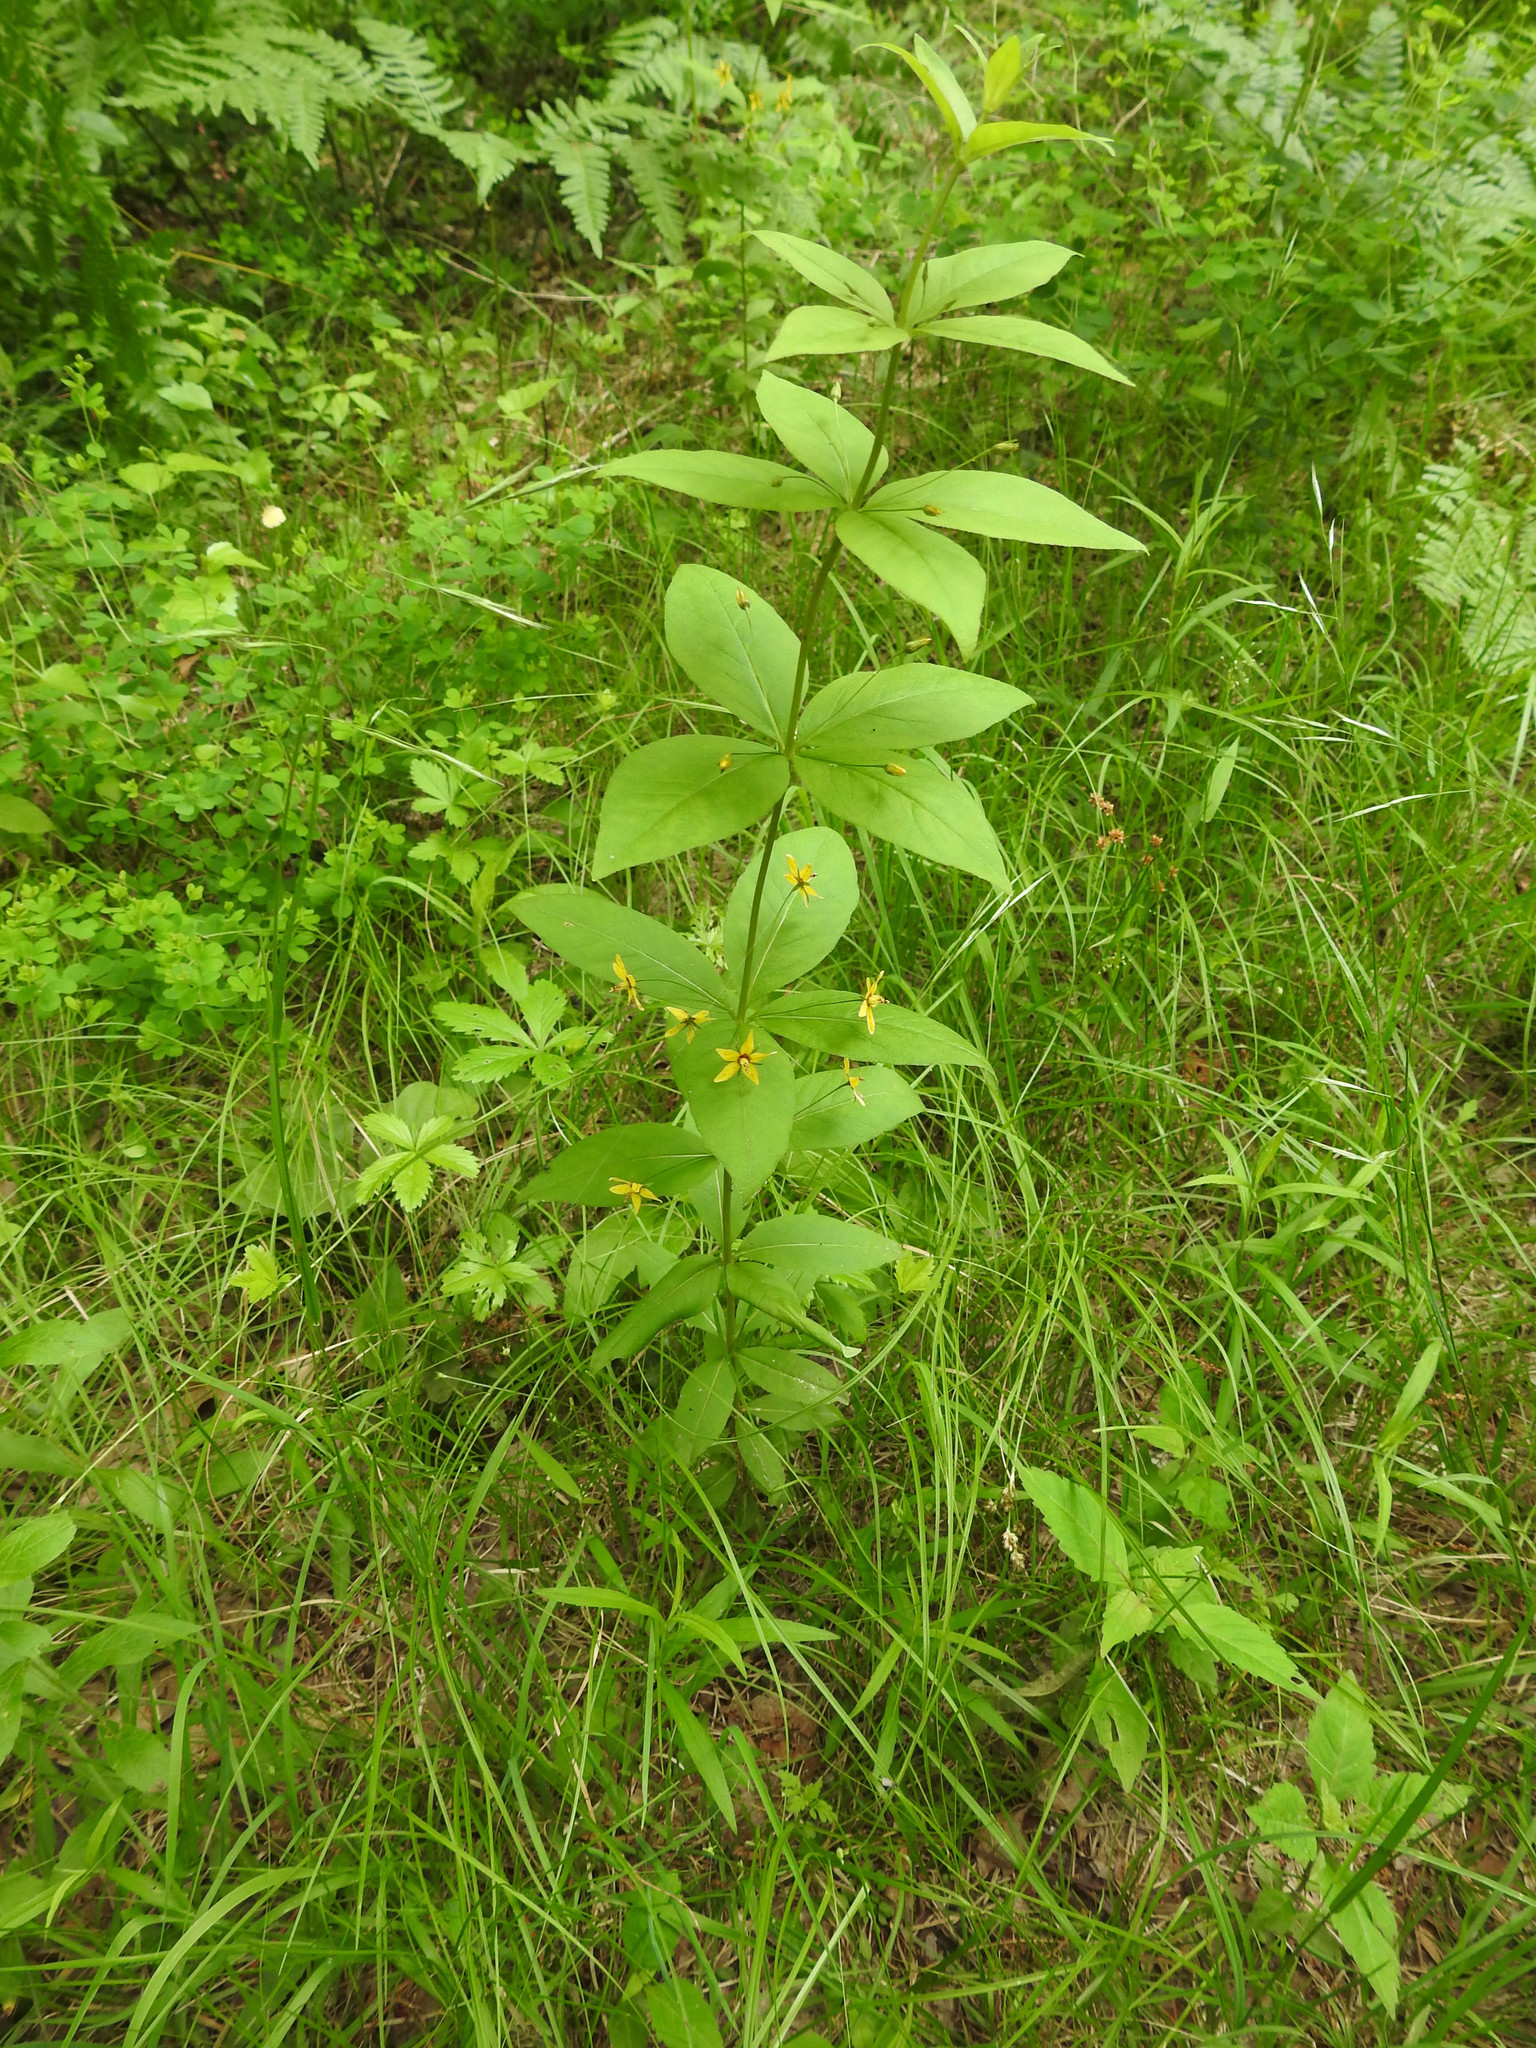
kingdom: Plantae
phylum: Tracheophyta
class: Magnoliopsida
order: Ericales
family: Primulaceae
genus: Lysimachia
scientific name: Lysimachia quadrifolia
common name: Whorled loosestrife
